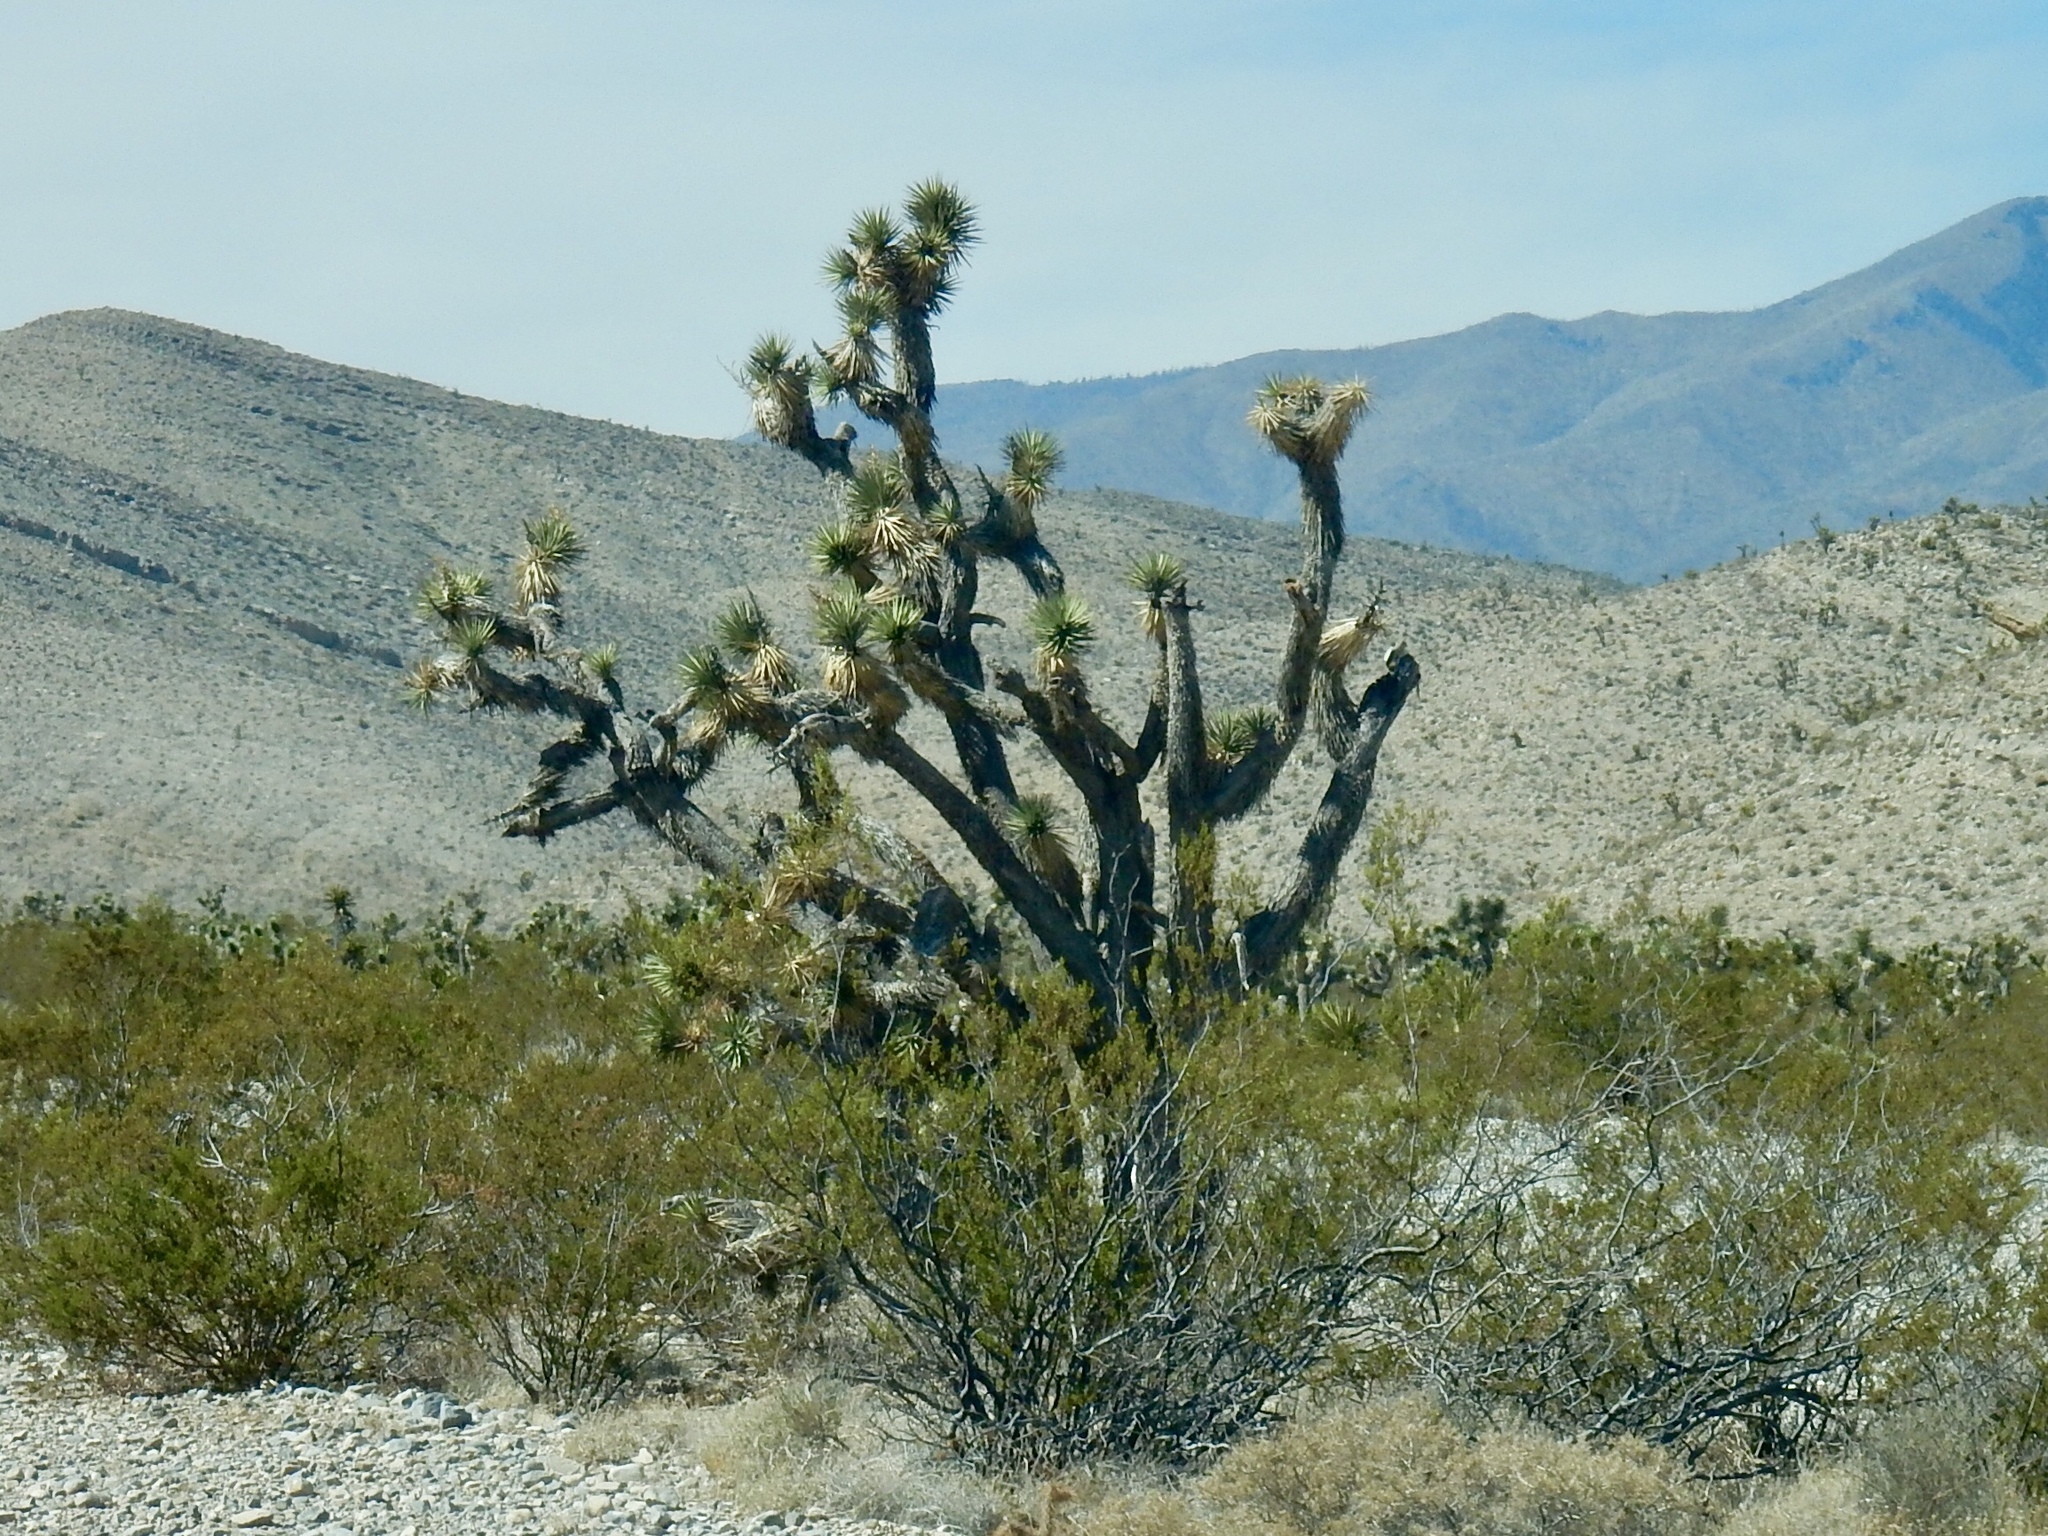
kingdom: Plantae
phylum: Tracheophyta
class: Liliopsida
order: Asparagales
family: Asparagaceae
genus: Yucca
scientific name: Yucca brevifolia
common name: Joshua tree
